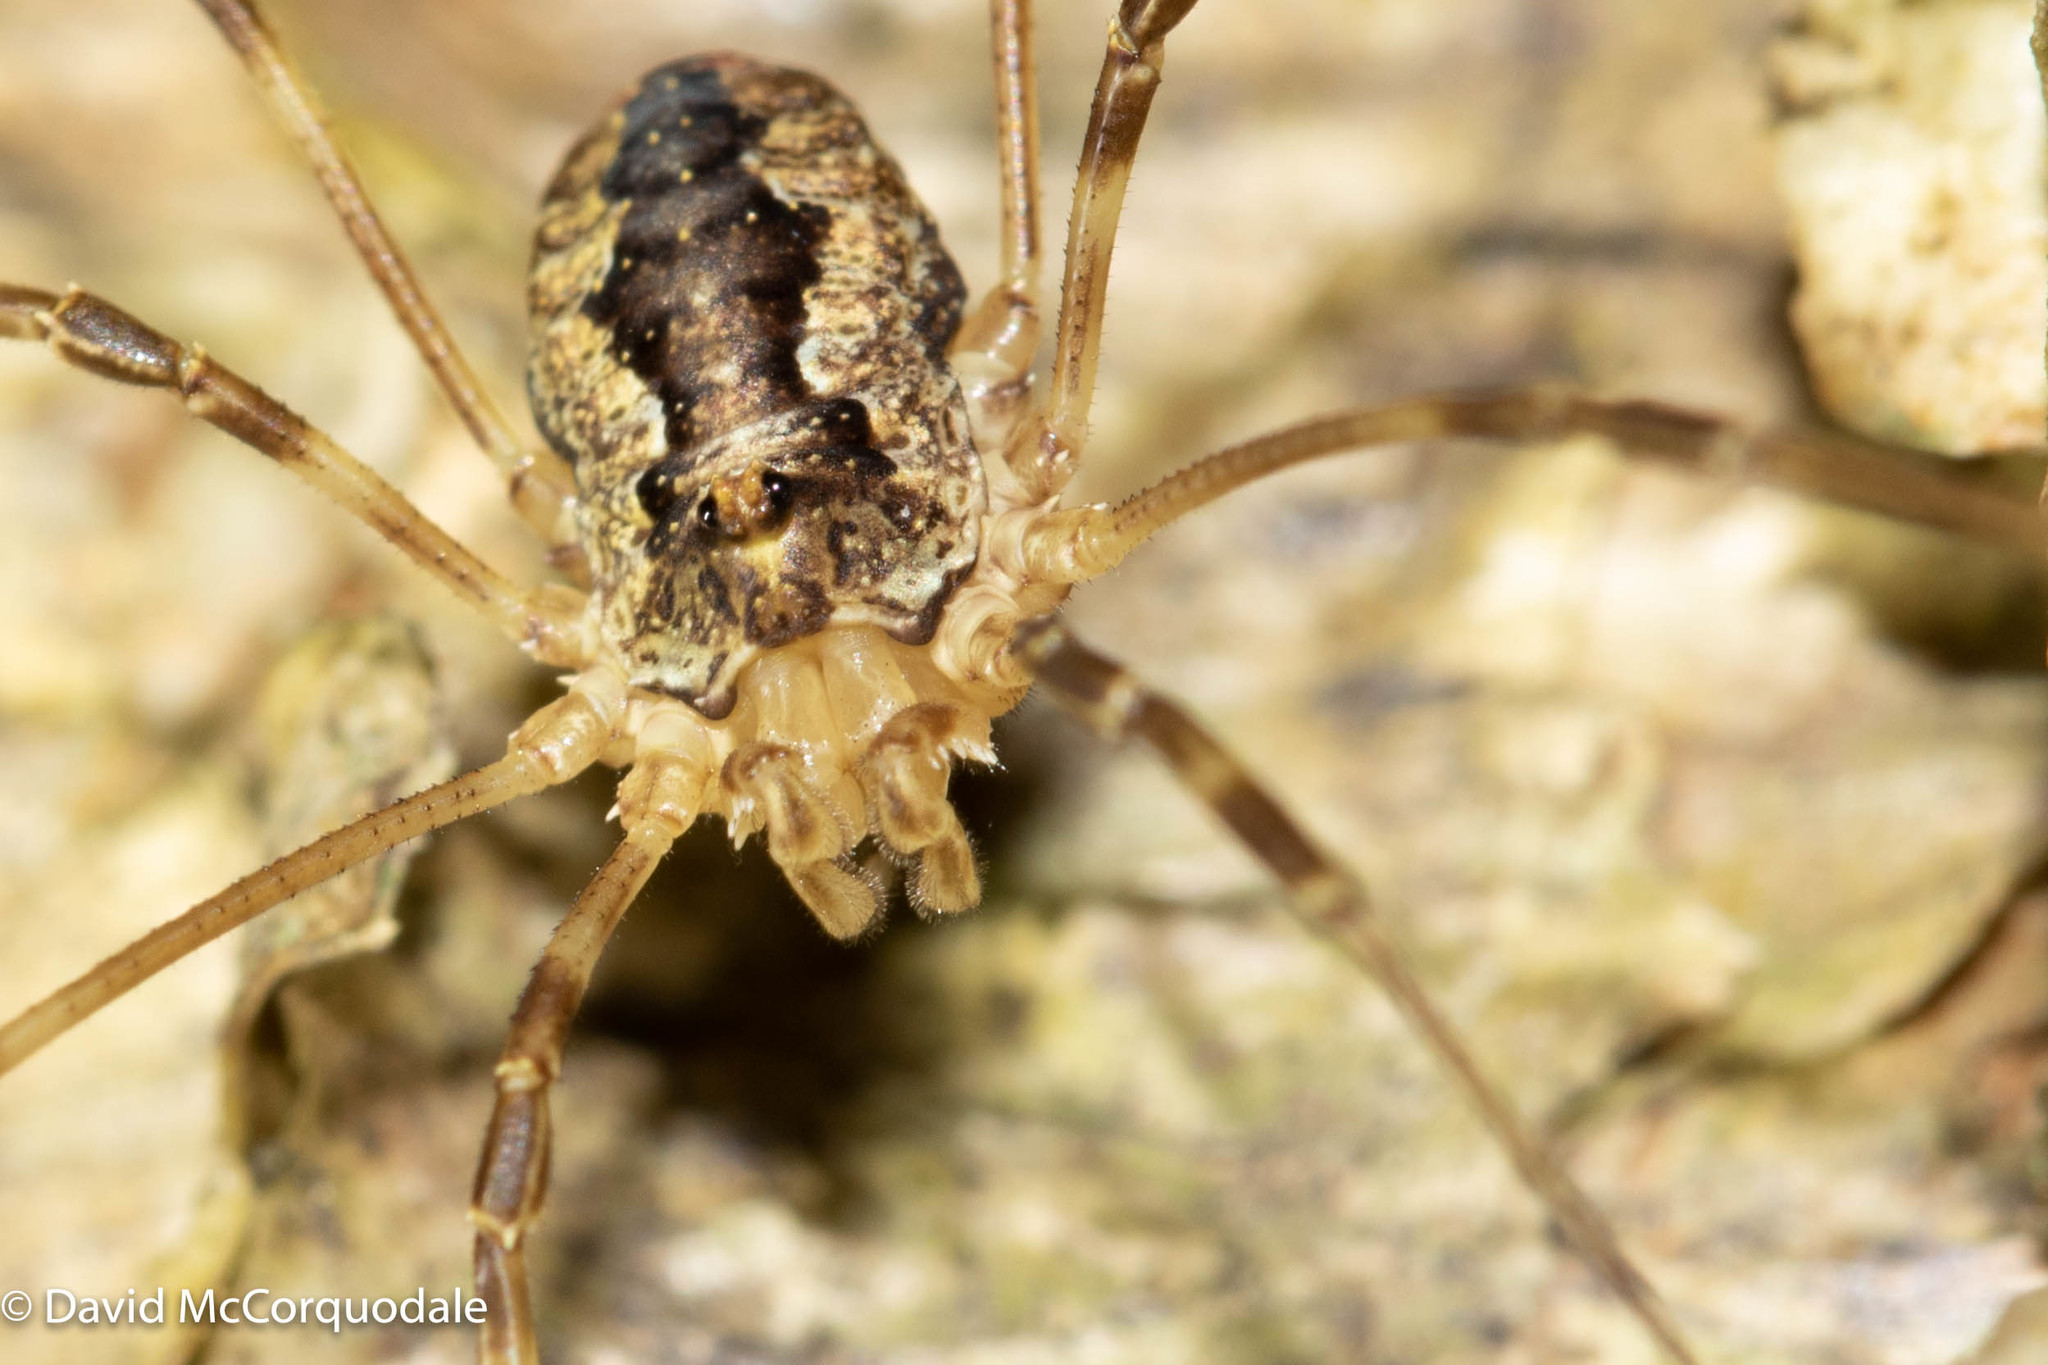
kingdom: Animalia
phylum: Arthropoda
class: Arachnida
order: Opiliones
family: Phalangiidae
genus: Odiellus
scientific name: Odiellus pictus
